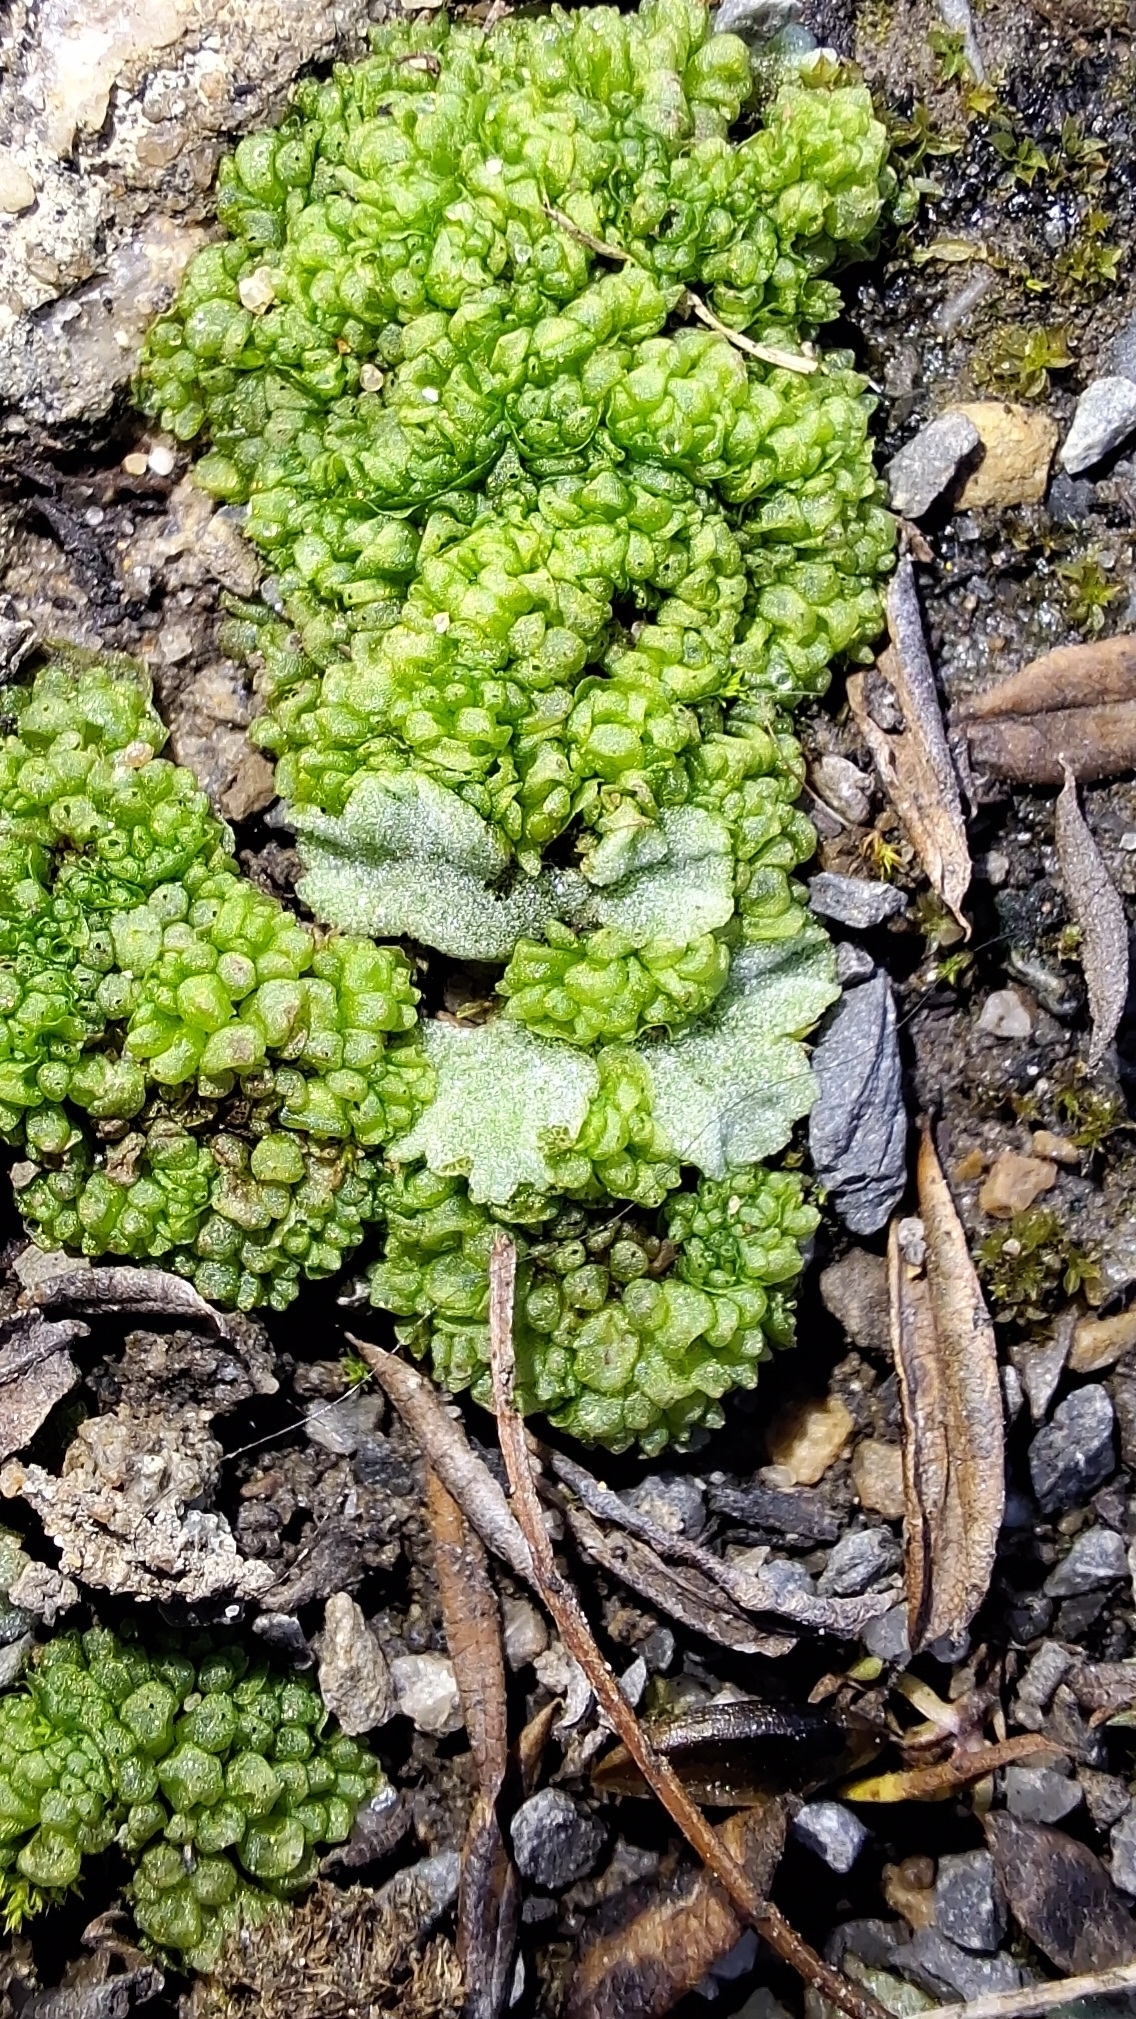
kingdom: Plantae
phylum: Marchantiophyta
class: Marchantiopsida
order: Marchantiales
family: Ricciaceae
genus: Riccia
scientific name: Riccia crystallina
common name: Blue crystalwort
